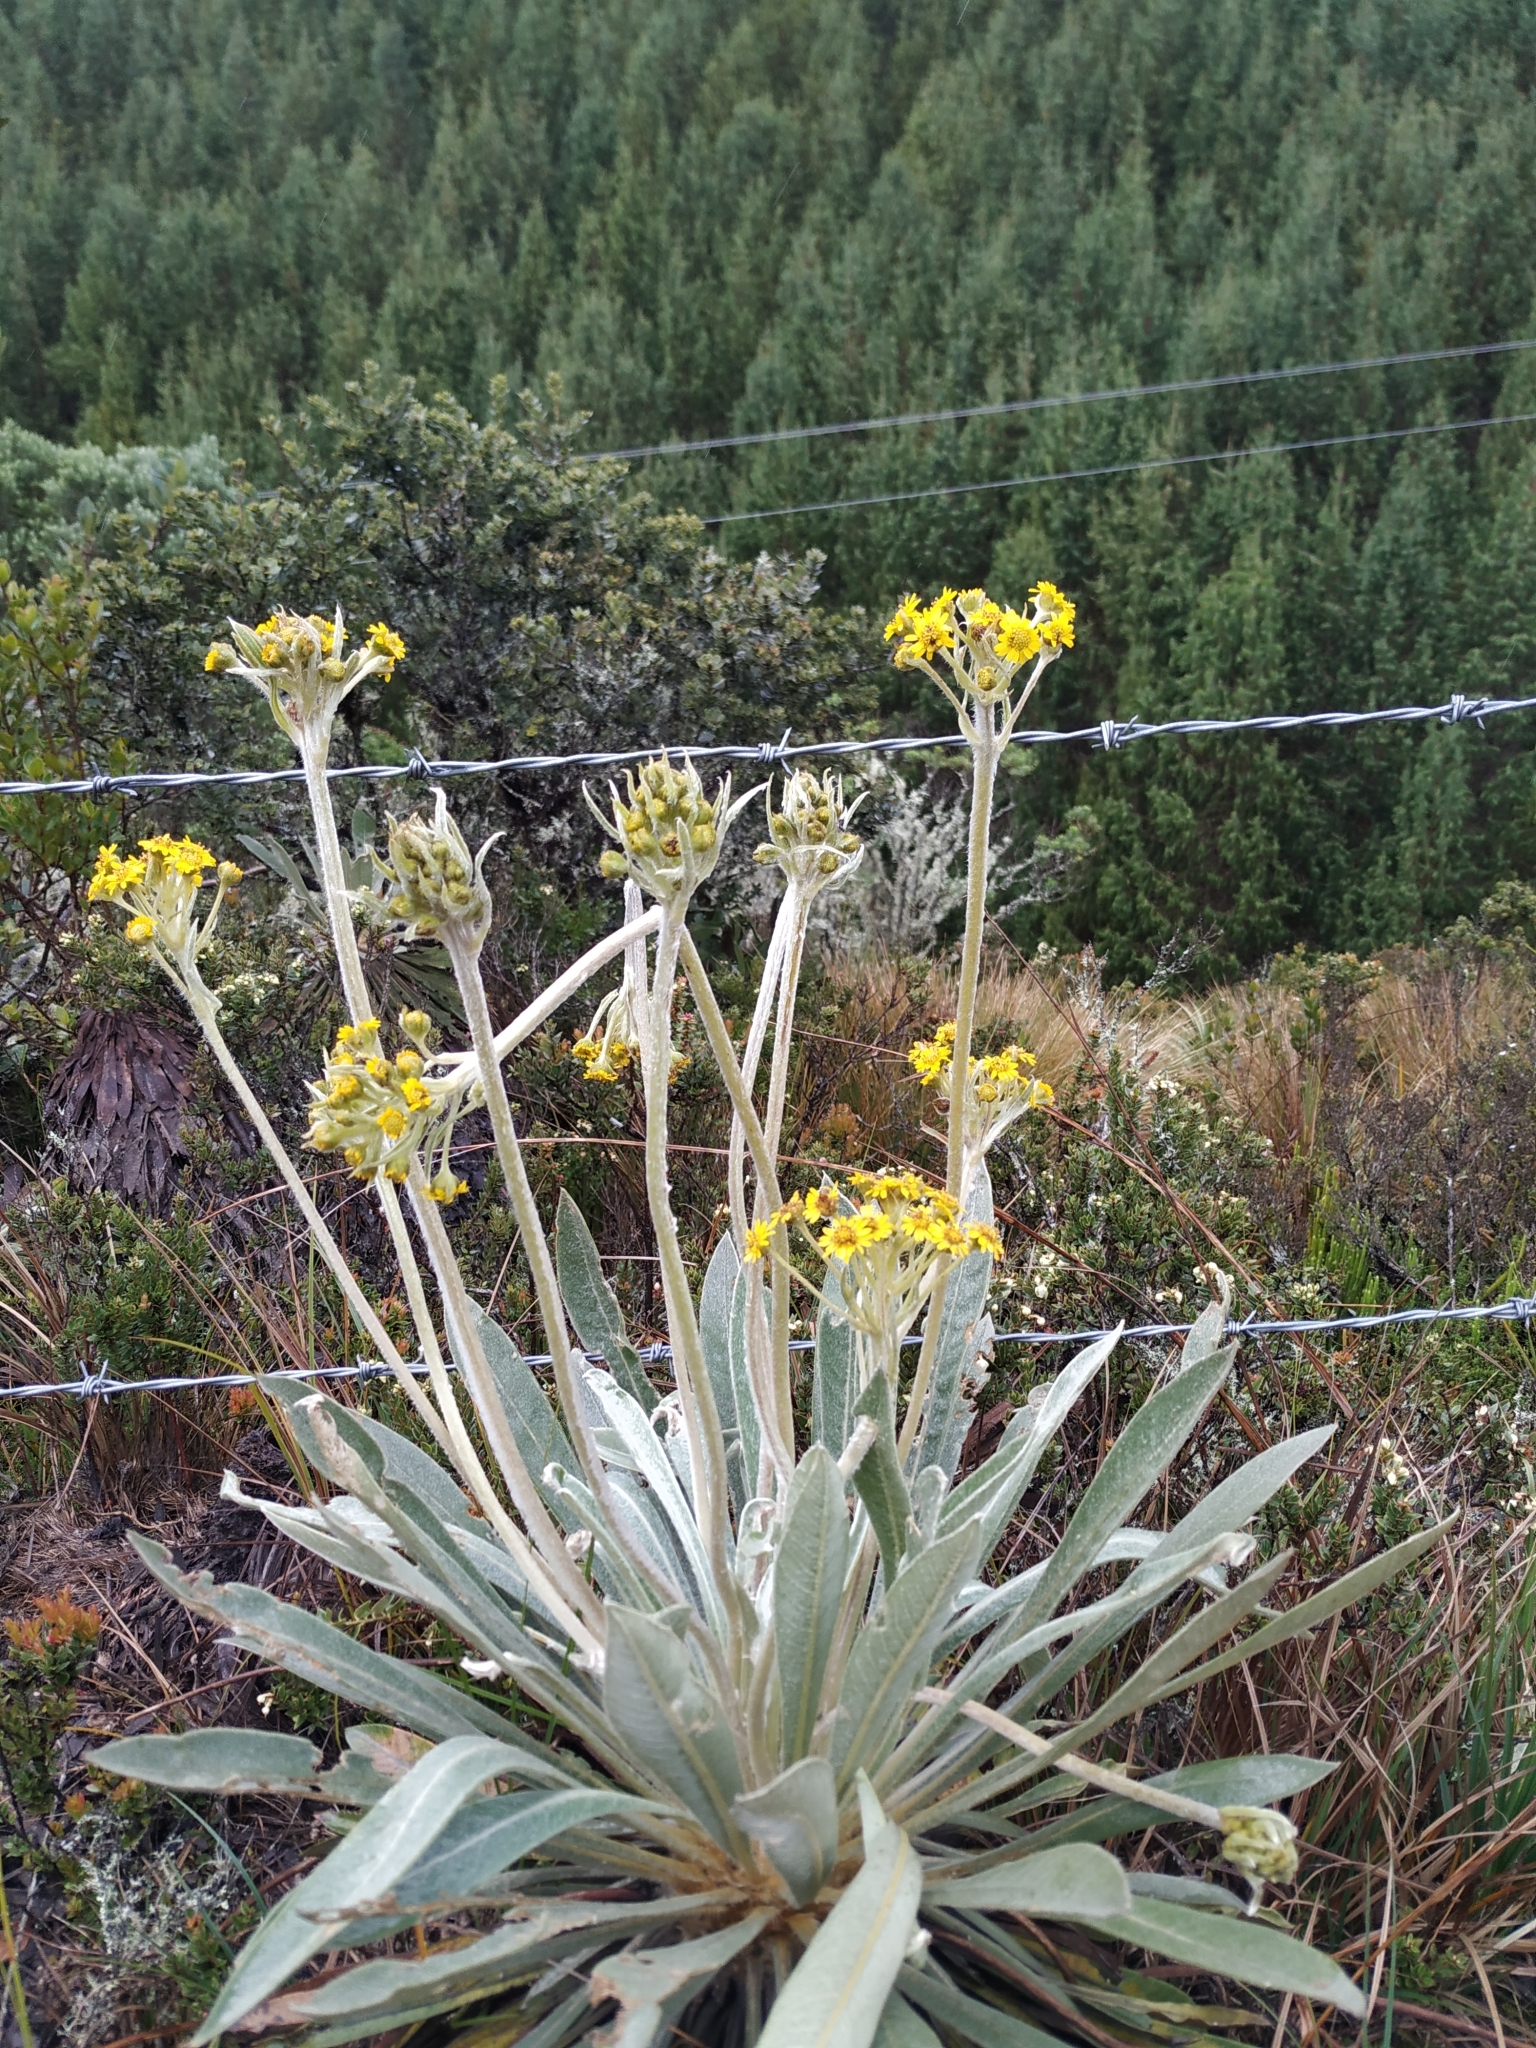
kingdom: Plantae
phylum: Tracheophyta
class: Magnoliopsida
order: Asterales
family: Asteraceae
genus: Espeletia
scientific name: Espeletia corymbosa
